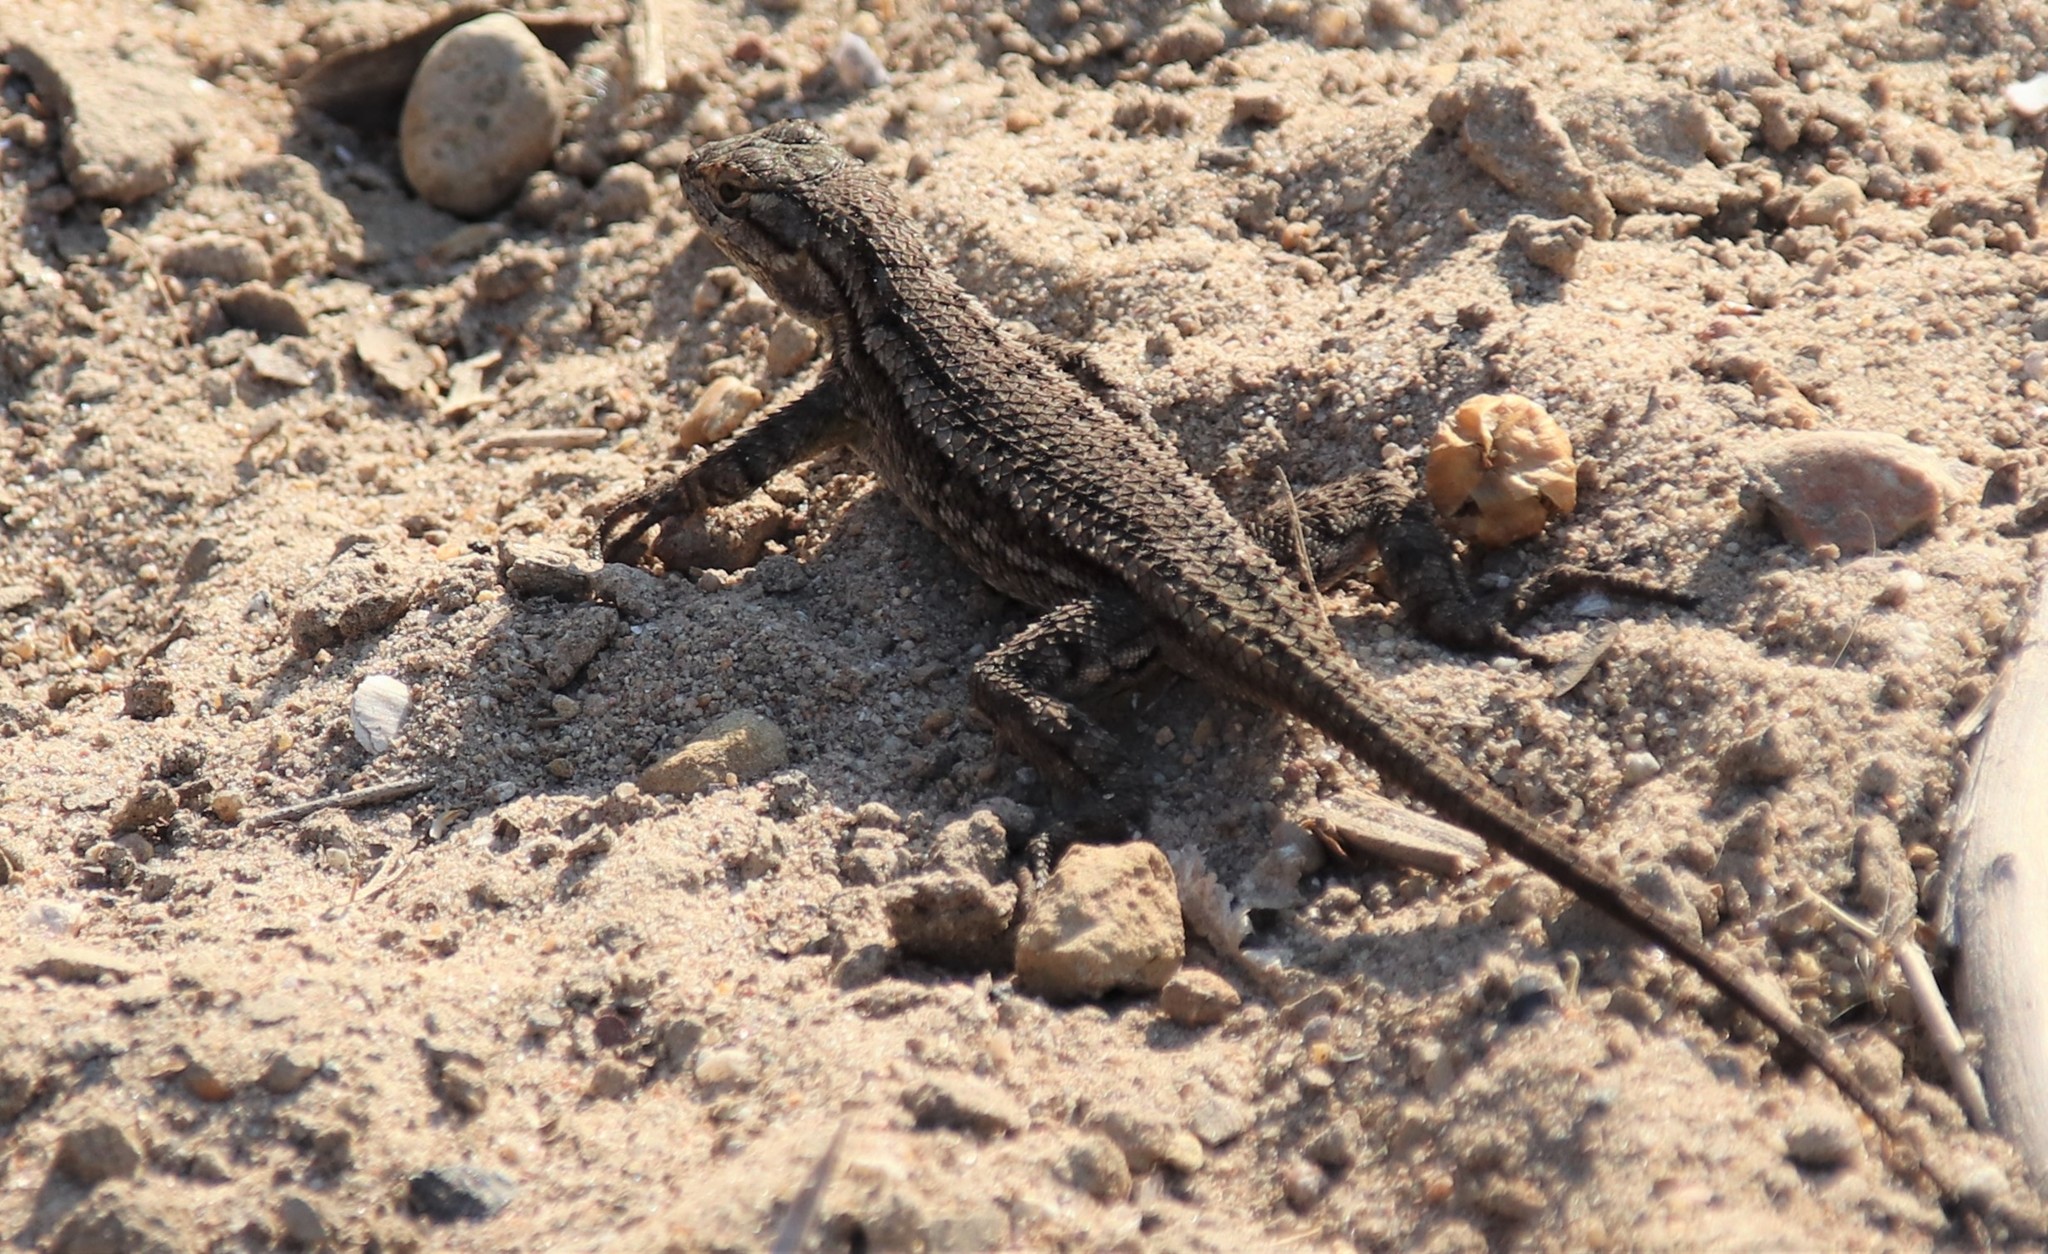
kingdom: Animalia
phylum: Chordata
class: Squamata
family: Phrynosomatidae
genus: Sceloporus
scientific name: Sceloporus occidentalis
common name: Western fence lizard
